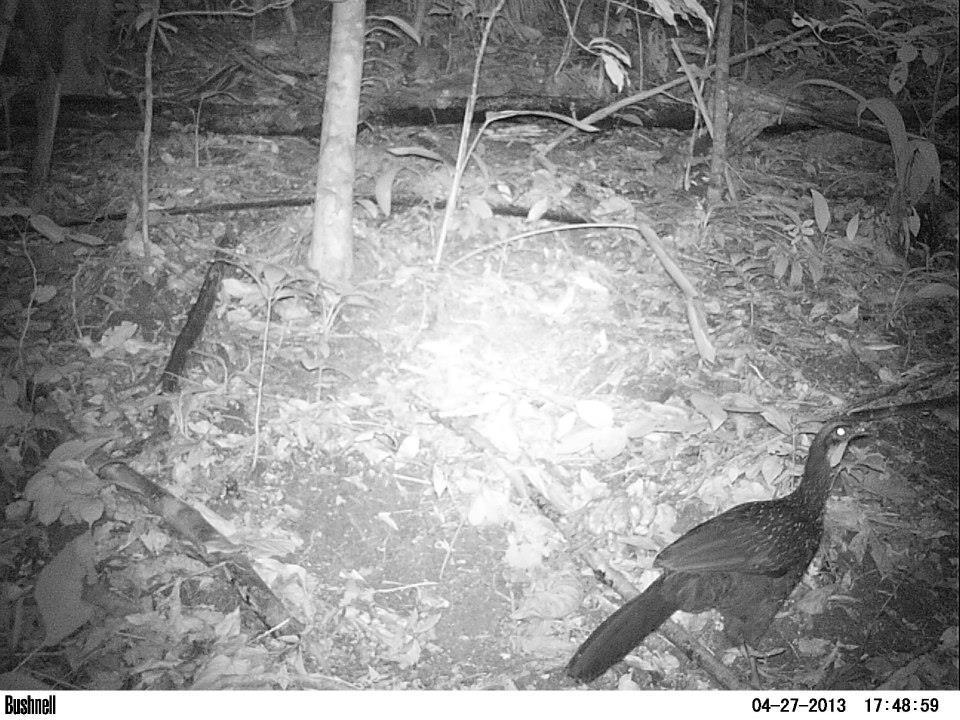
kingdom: Animalia
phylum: Chordata
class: Aves
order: Galliformes
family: Cracidae
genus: Penelope
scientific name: Penelope obscura
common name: Dusky-legged guan
